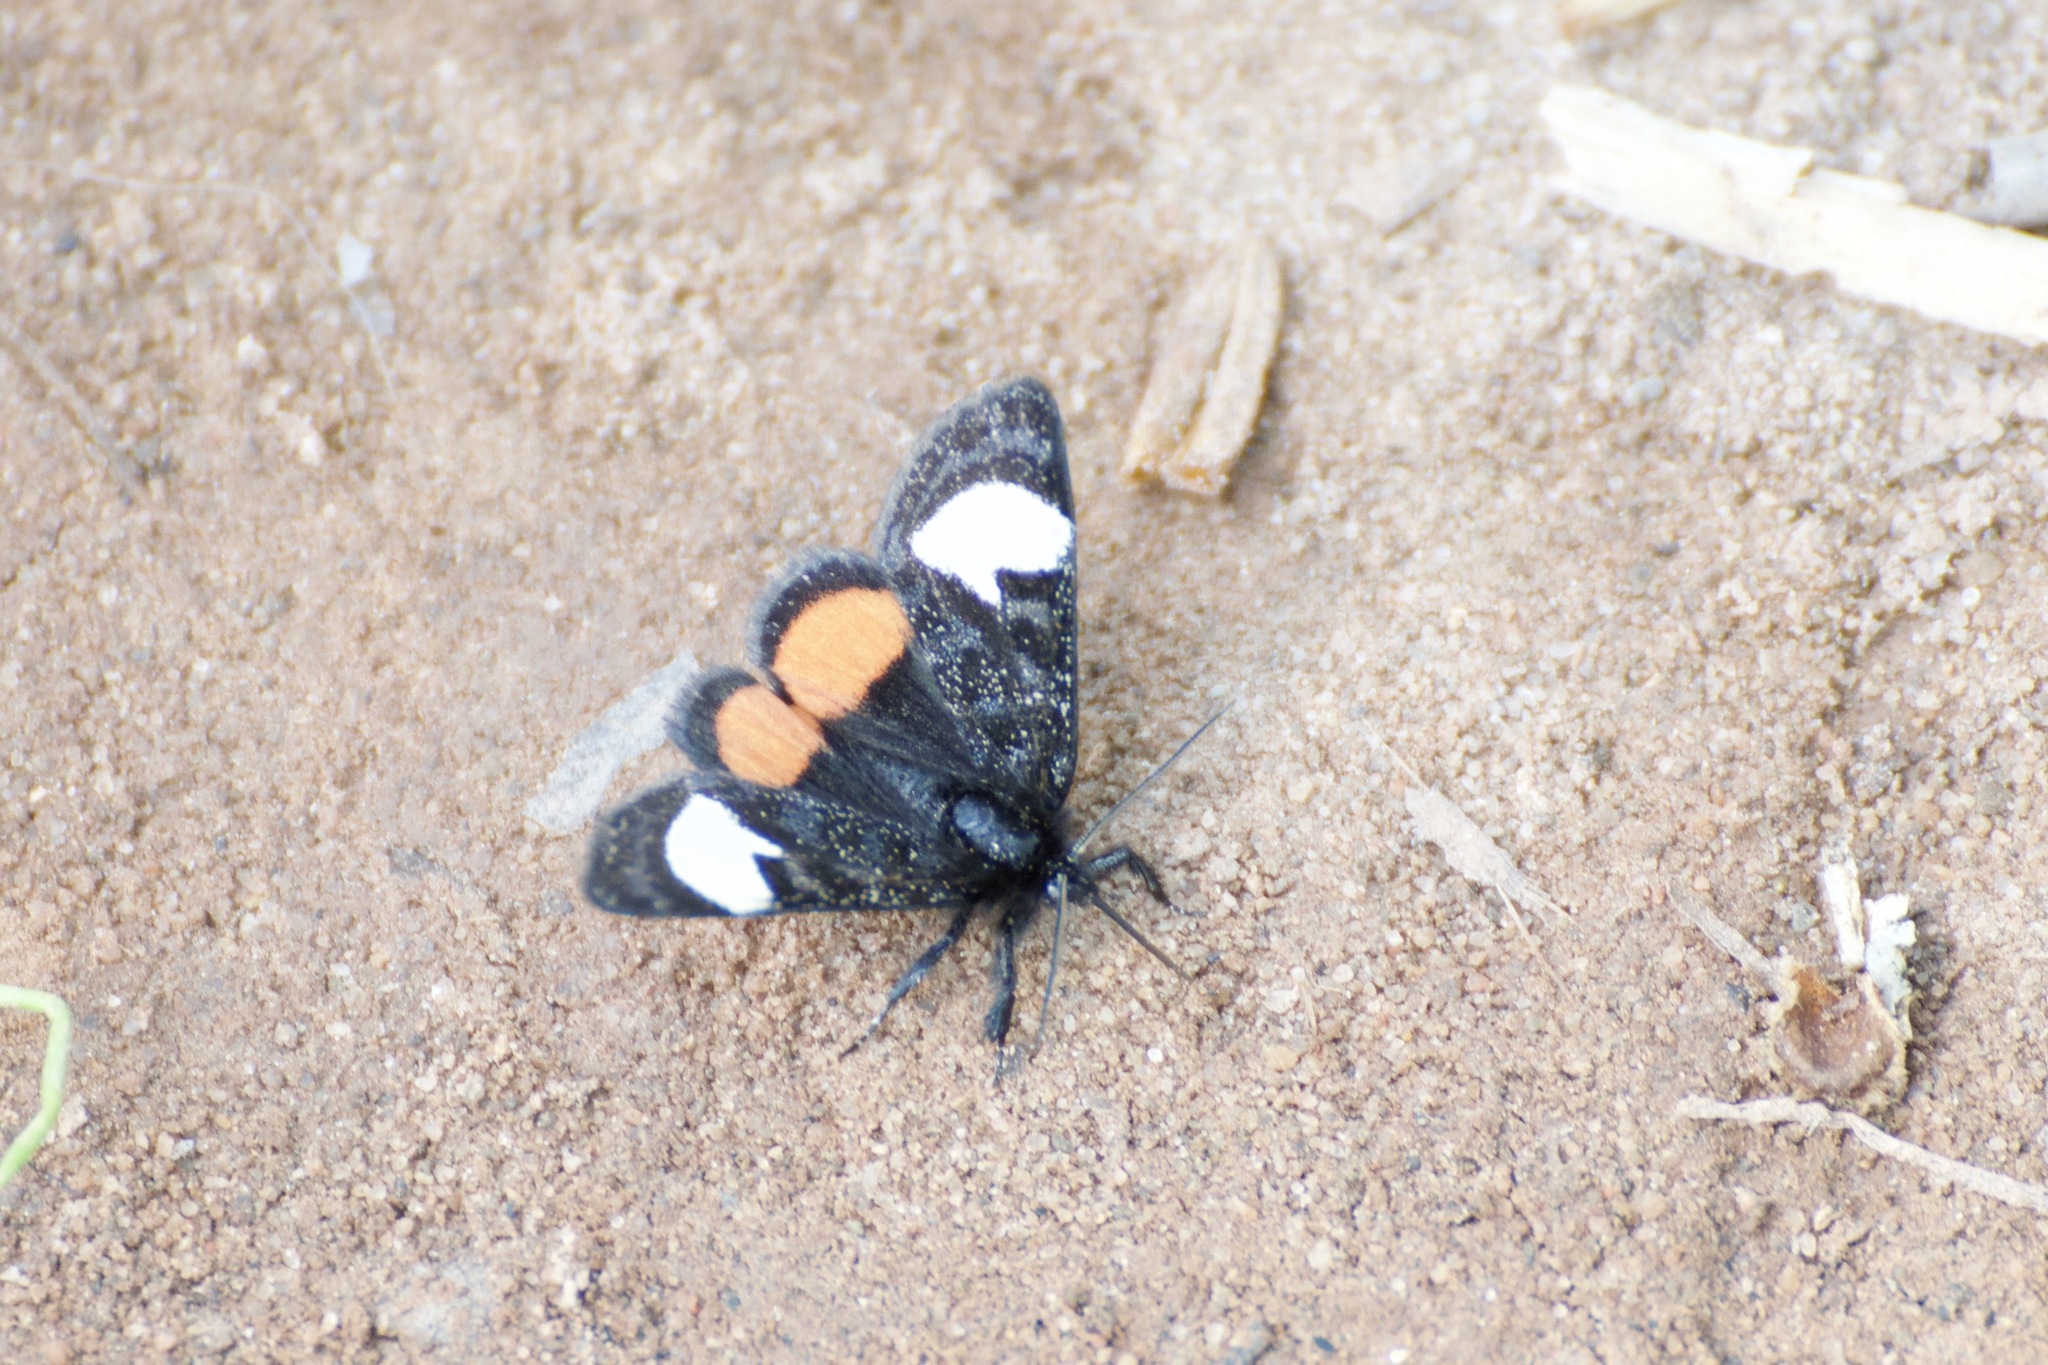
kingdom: Animalia
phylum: Arthropoda
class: Insecta
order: Lepidoptera
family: Noctuidae
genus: Psychomorpha
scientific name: Psychomorpha epimenis
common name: Grapevine epimenis moth
